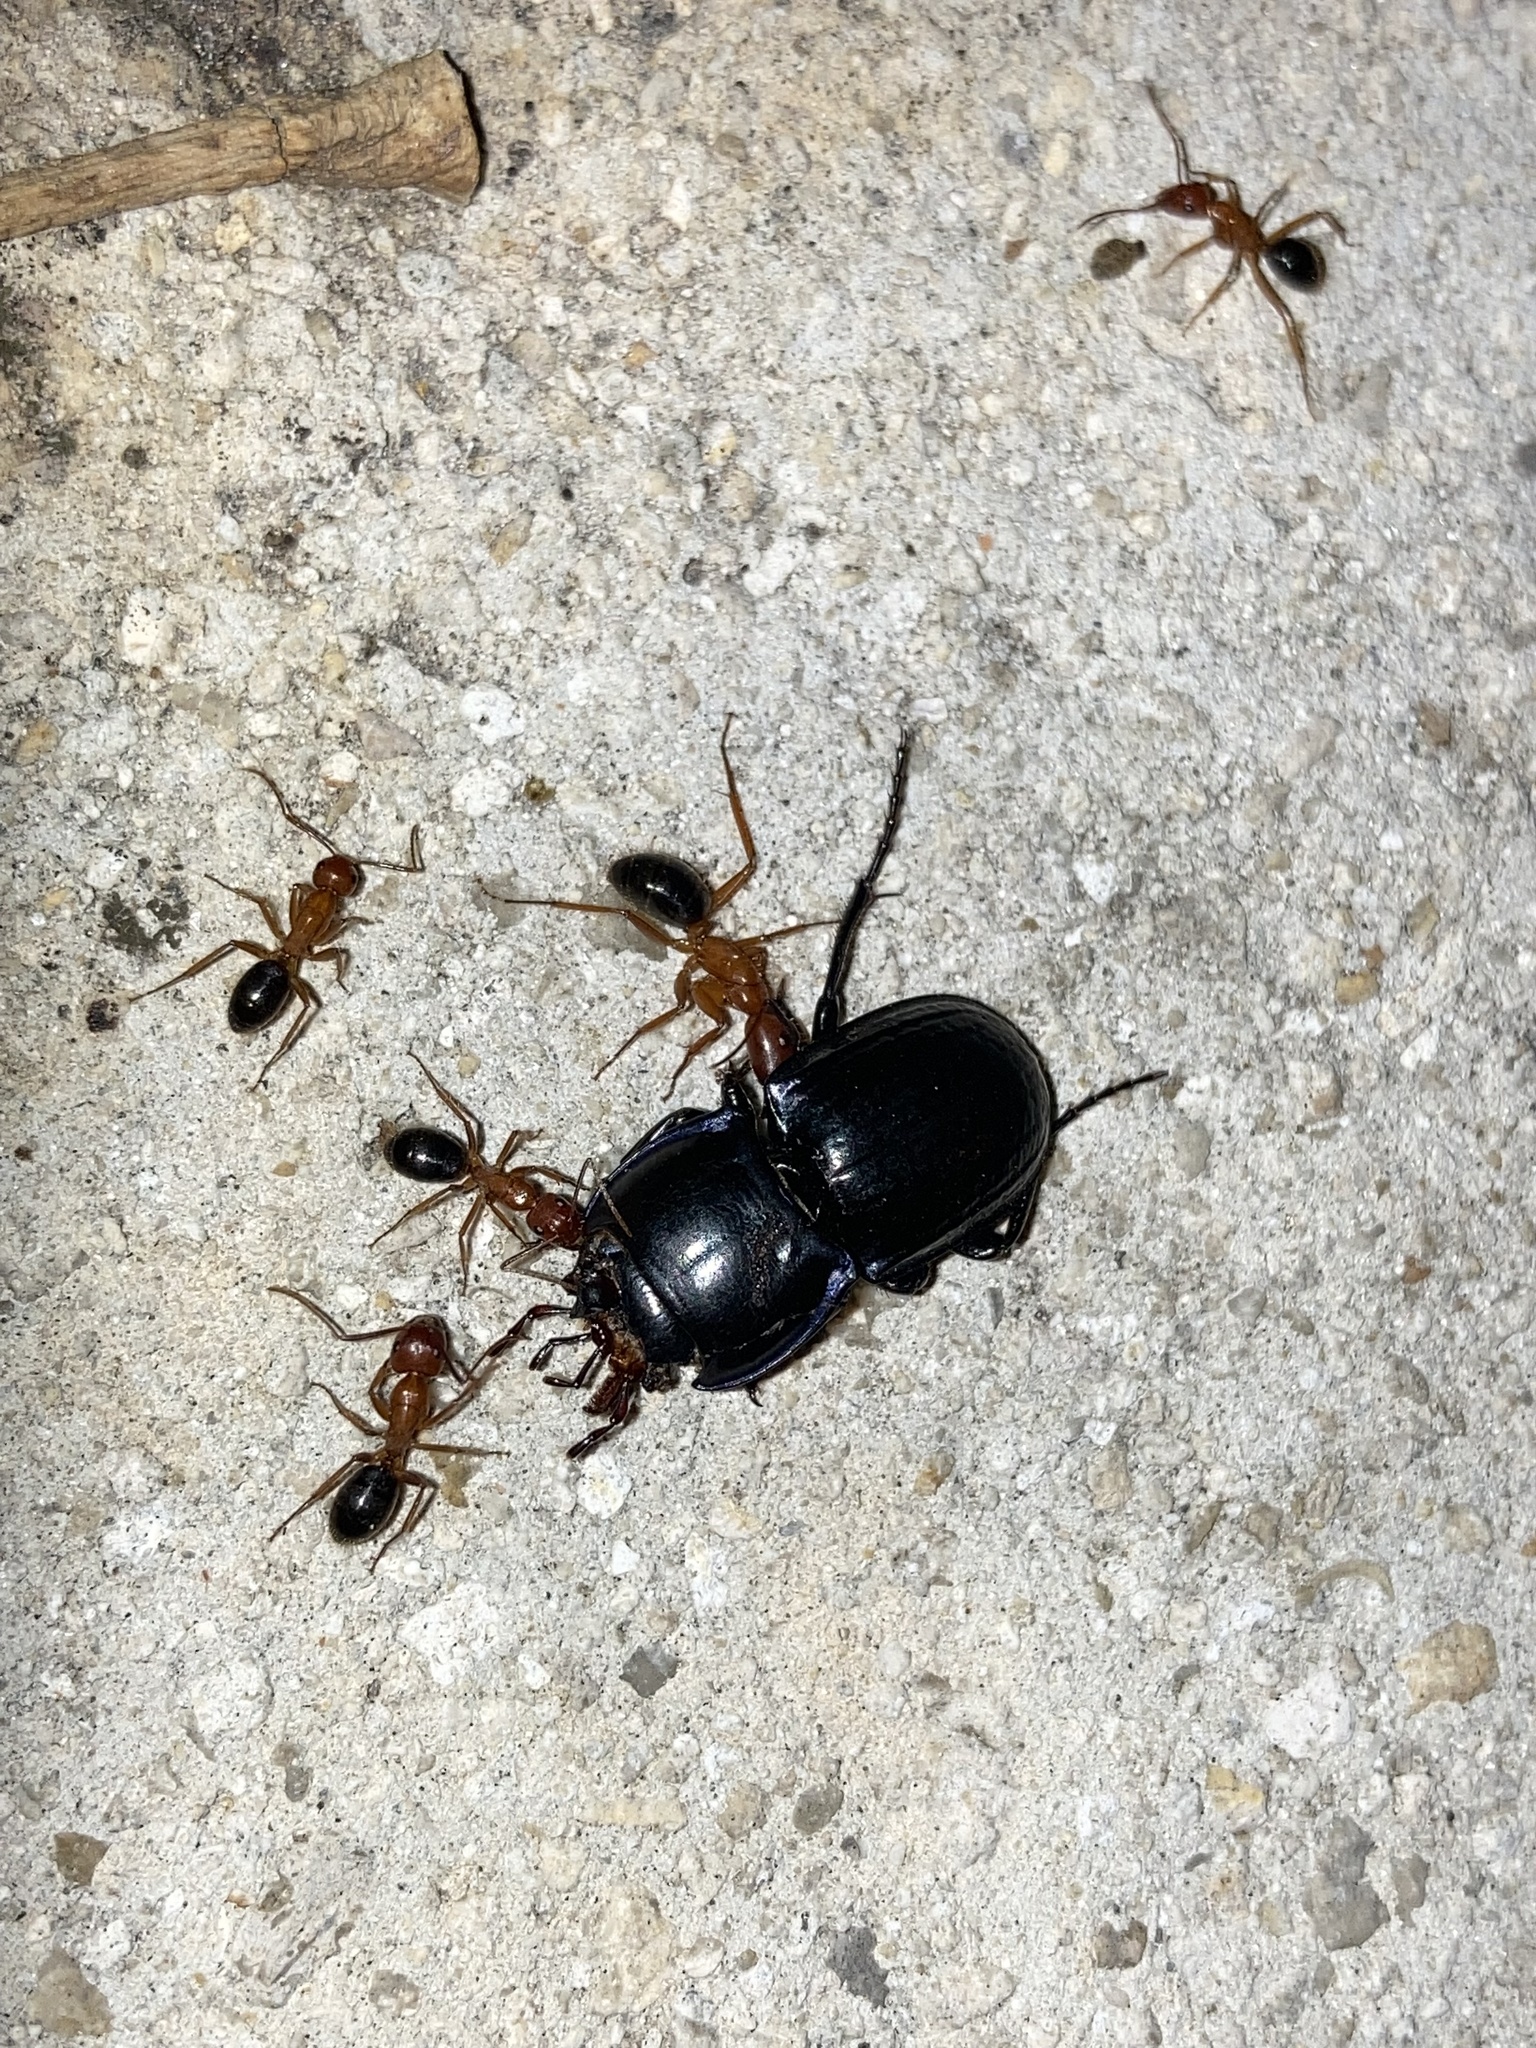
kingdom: Animalia
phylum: Arthropoda
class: Insecta
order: Hymenoptera
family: Formicidae
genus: Camponotus
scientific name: Camponotus floridanus
